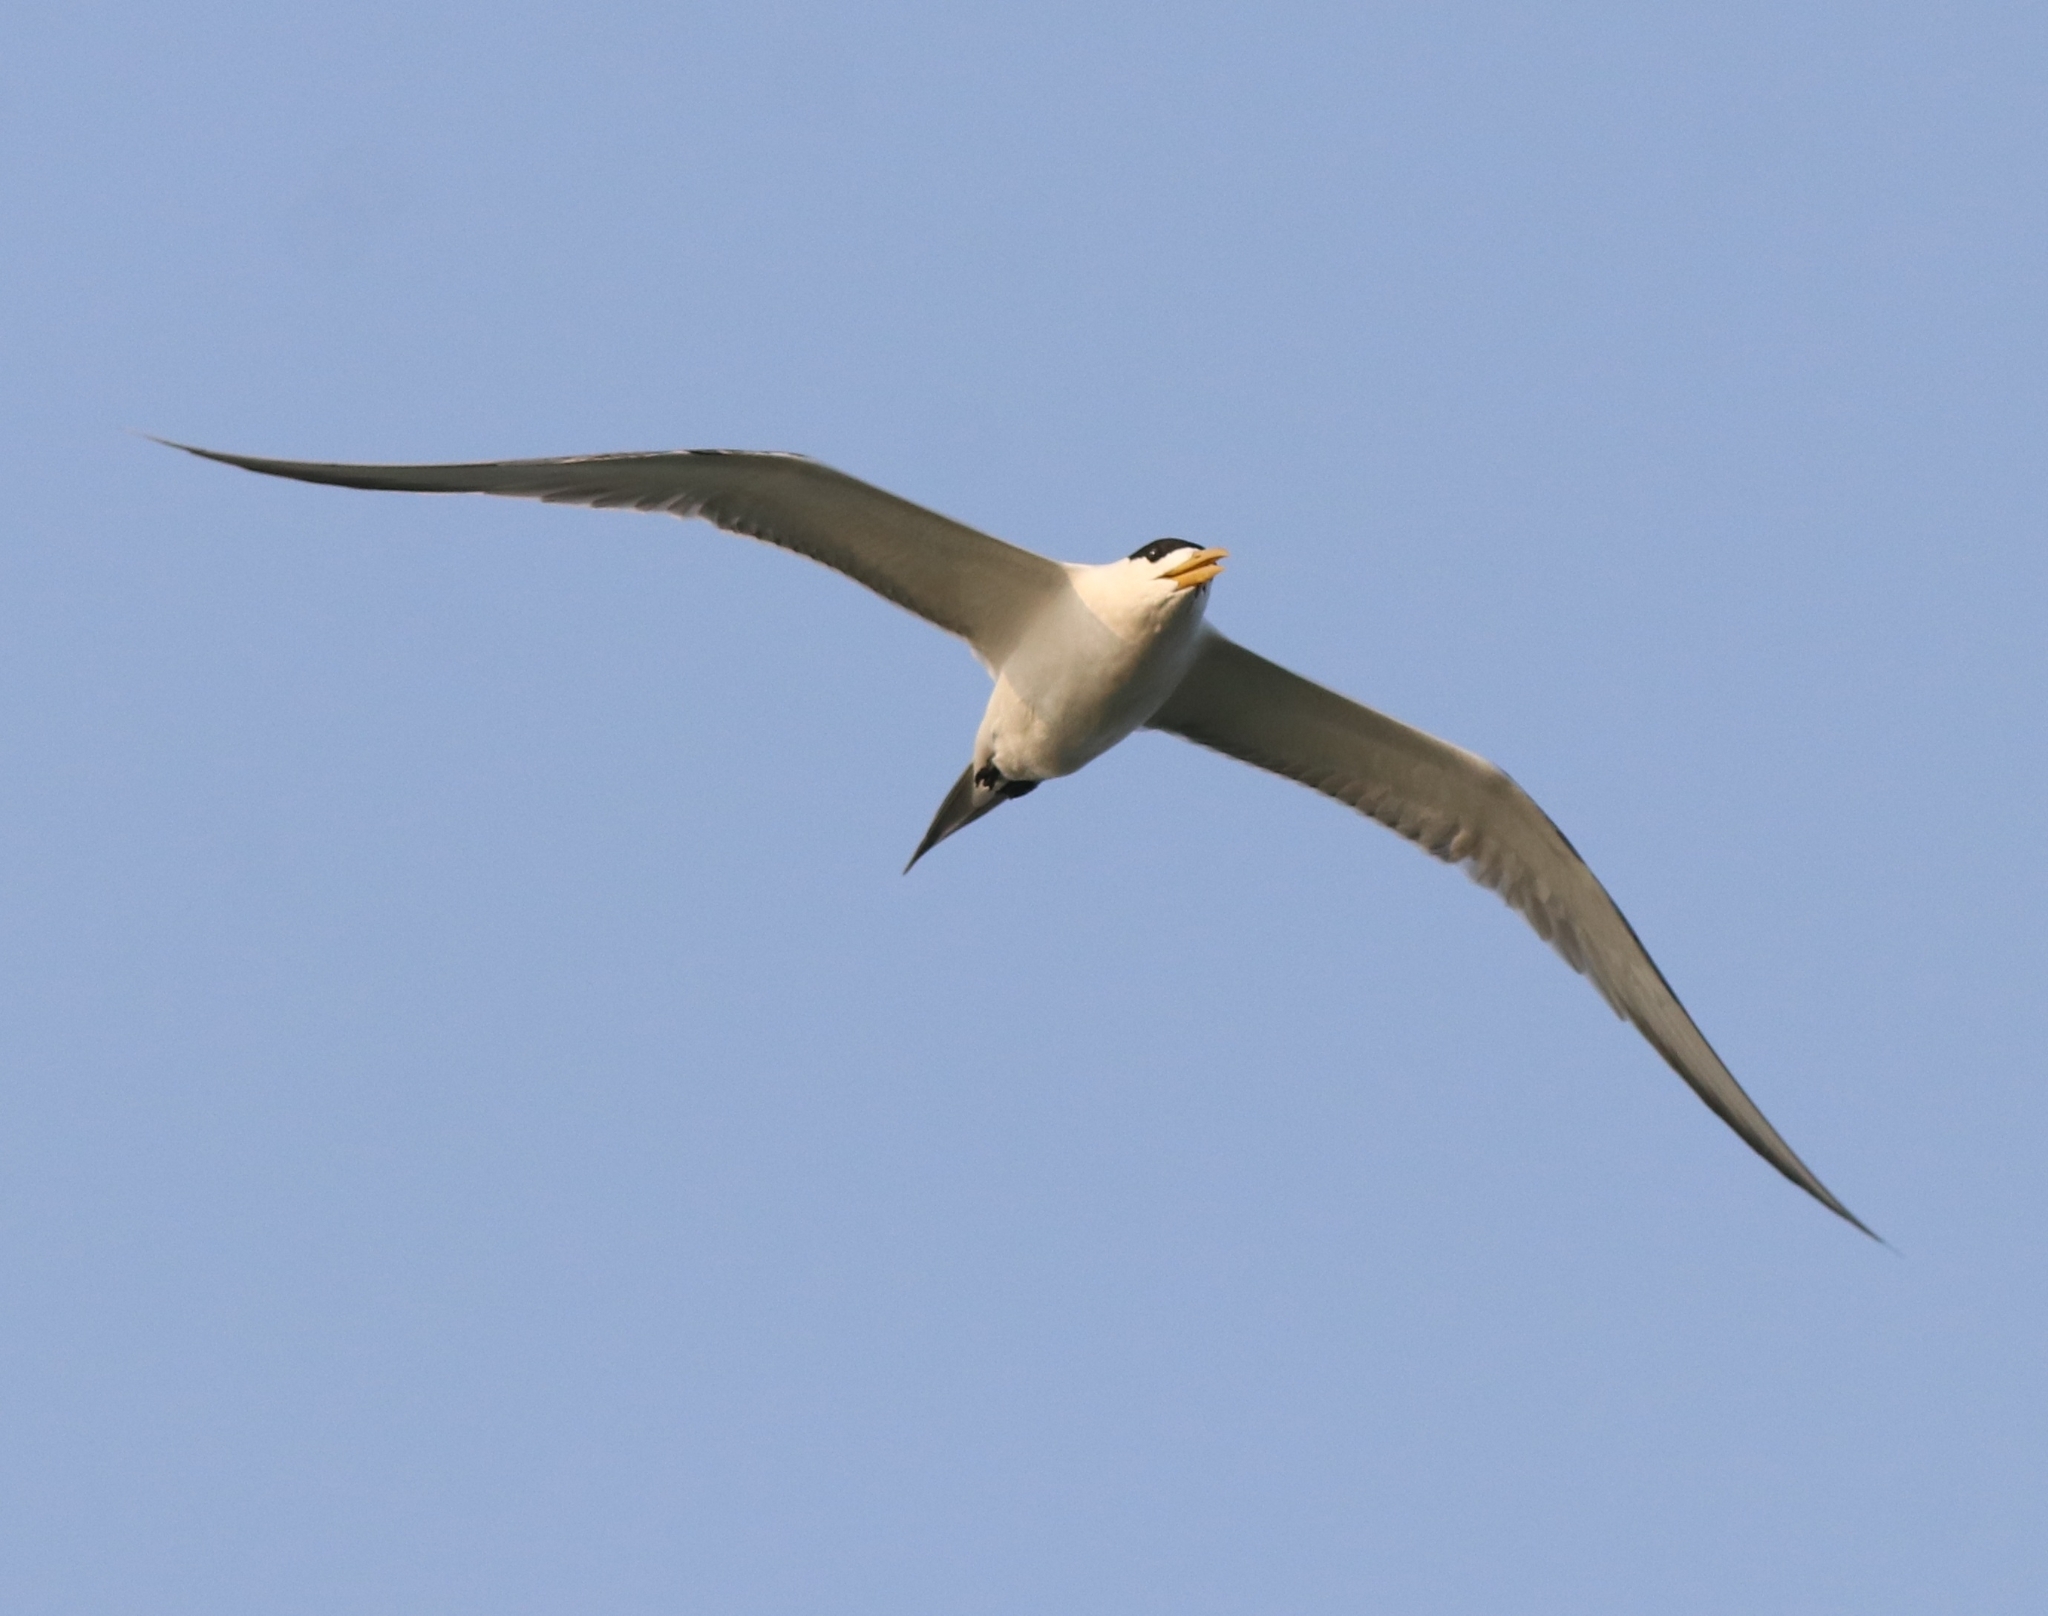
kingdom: Animalia
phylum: Chordata
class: Aves
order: Charadriiformes
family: Laridae
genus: Thalasseus
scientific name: Thalasseus bergii
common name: Greater crested tern
